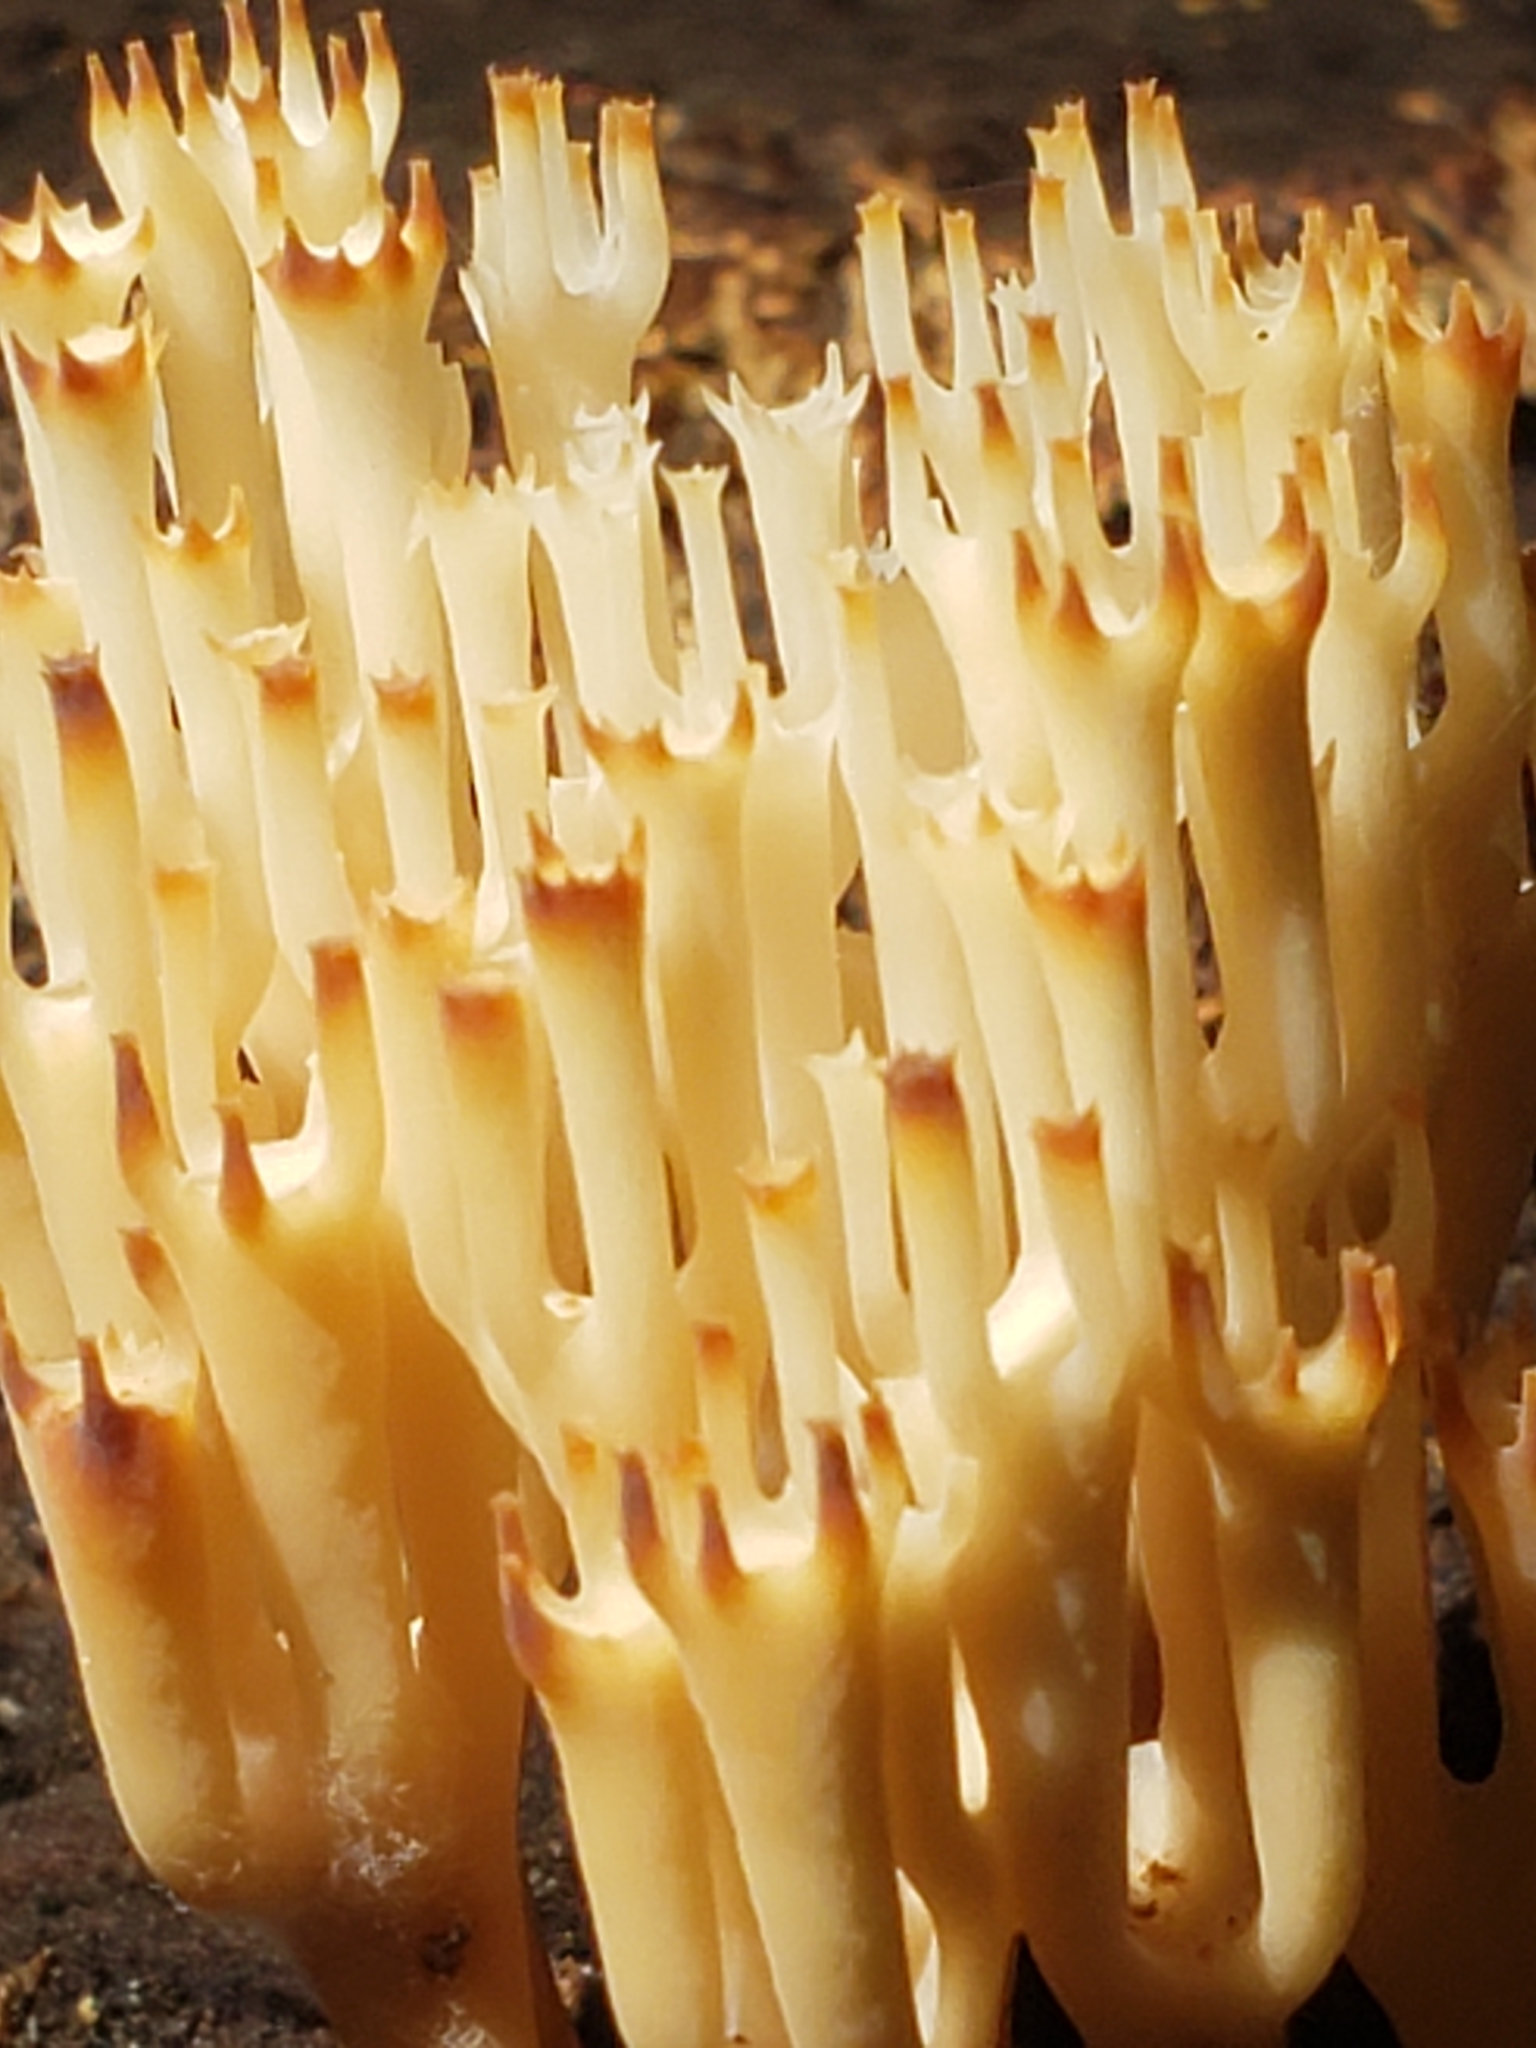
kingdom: Fungi
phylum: Basidiomycota
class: Agaricomycetes
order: Russulales
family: Auriscalpiaceae
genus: Artomyces
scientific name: Artomyces pyxidatus
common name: Crown-tipped coral fungus
